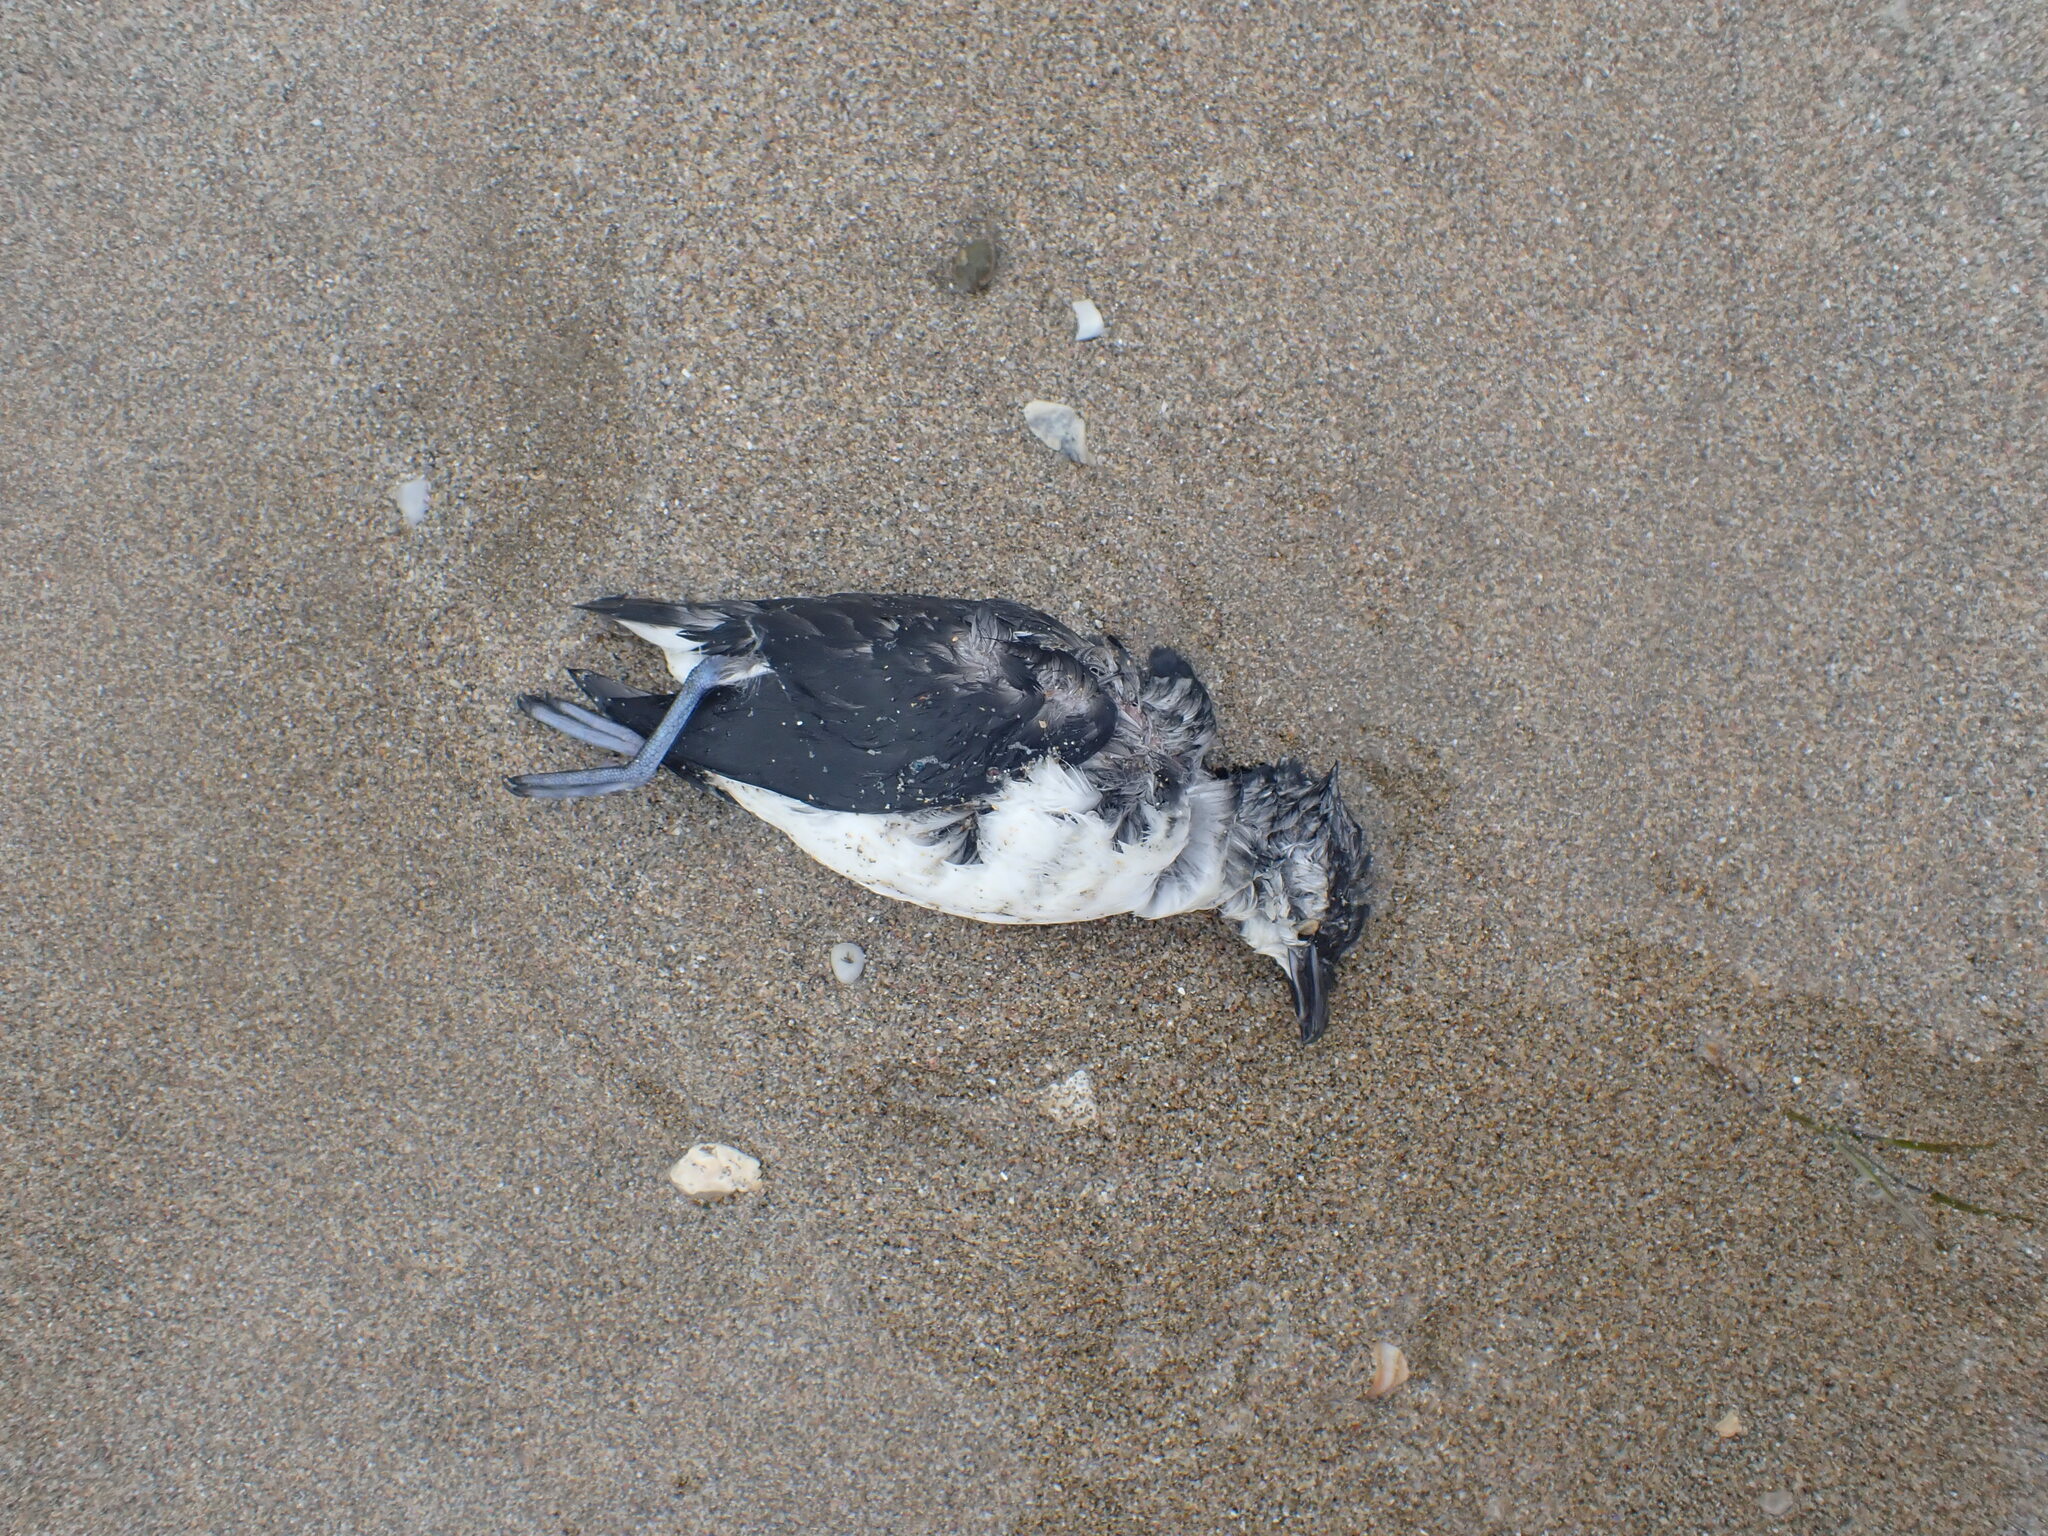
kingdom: Animalia
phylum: Chordata
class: Aves
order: Procellariiformes
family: Pelecanoididae
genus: Pelecanoides
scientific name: Pelecanoides urinatrix
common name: Common diving-petrel
